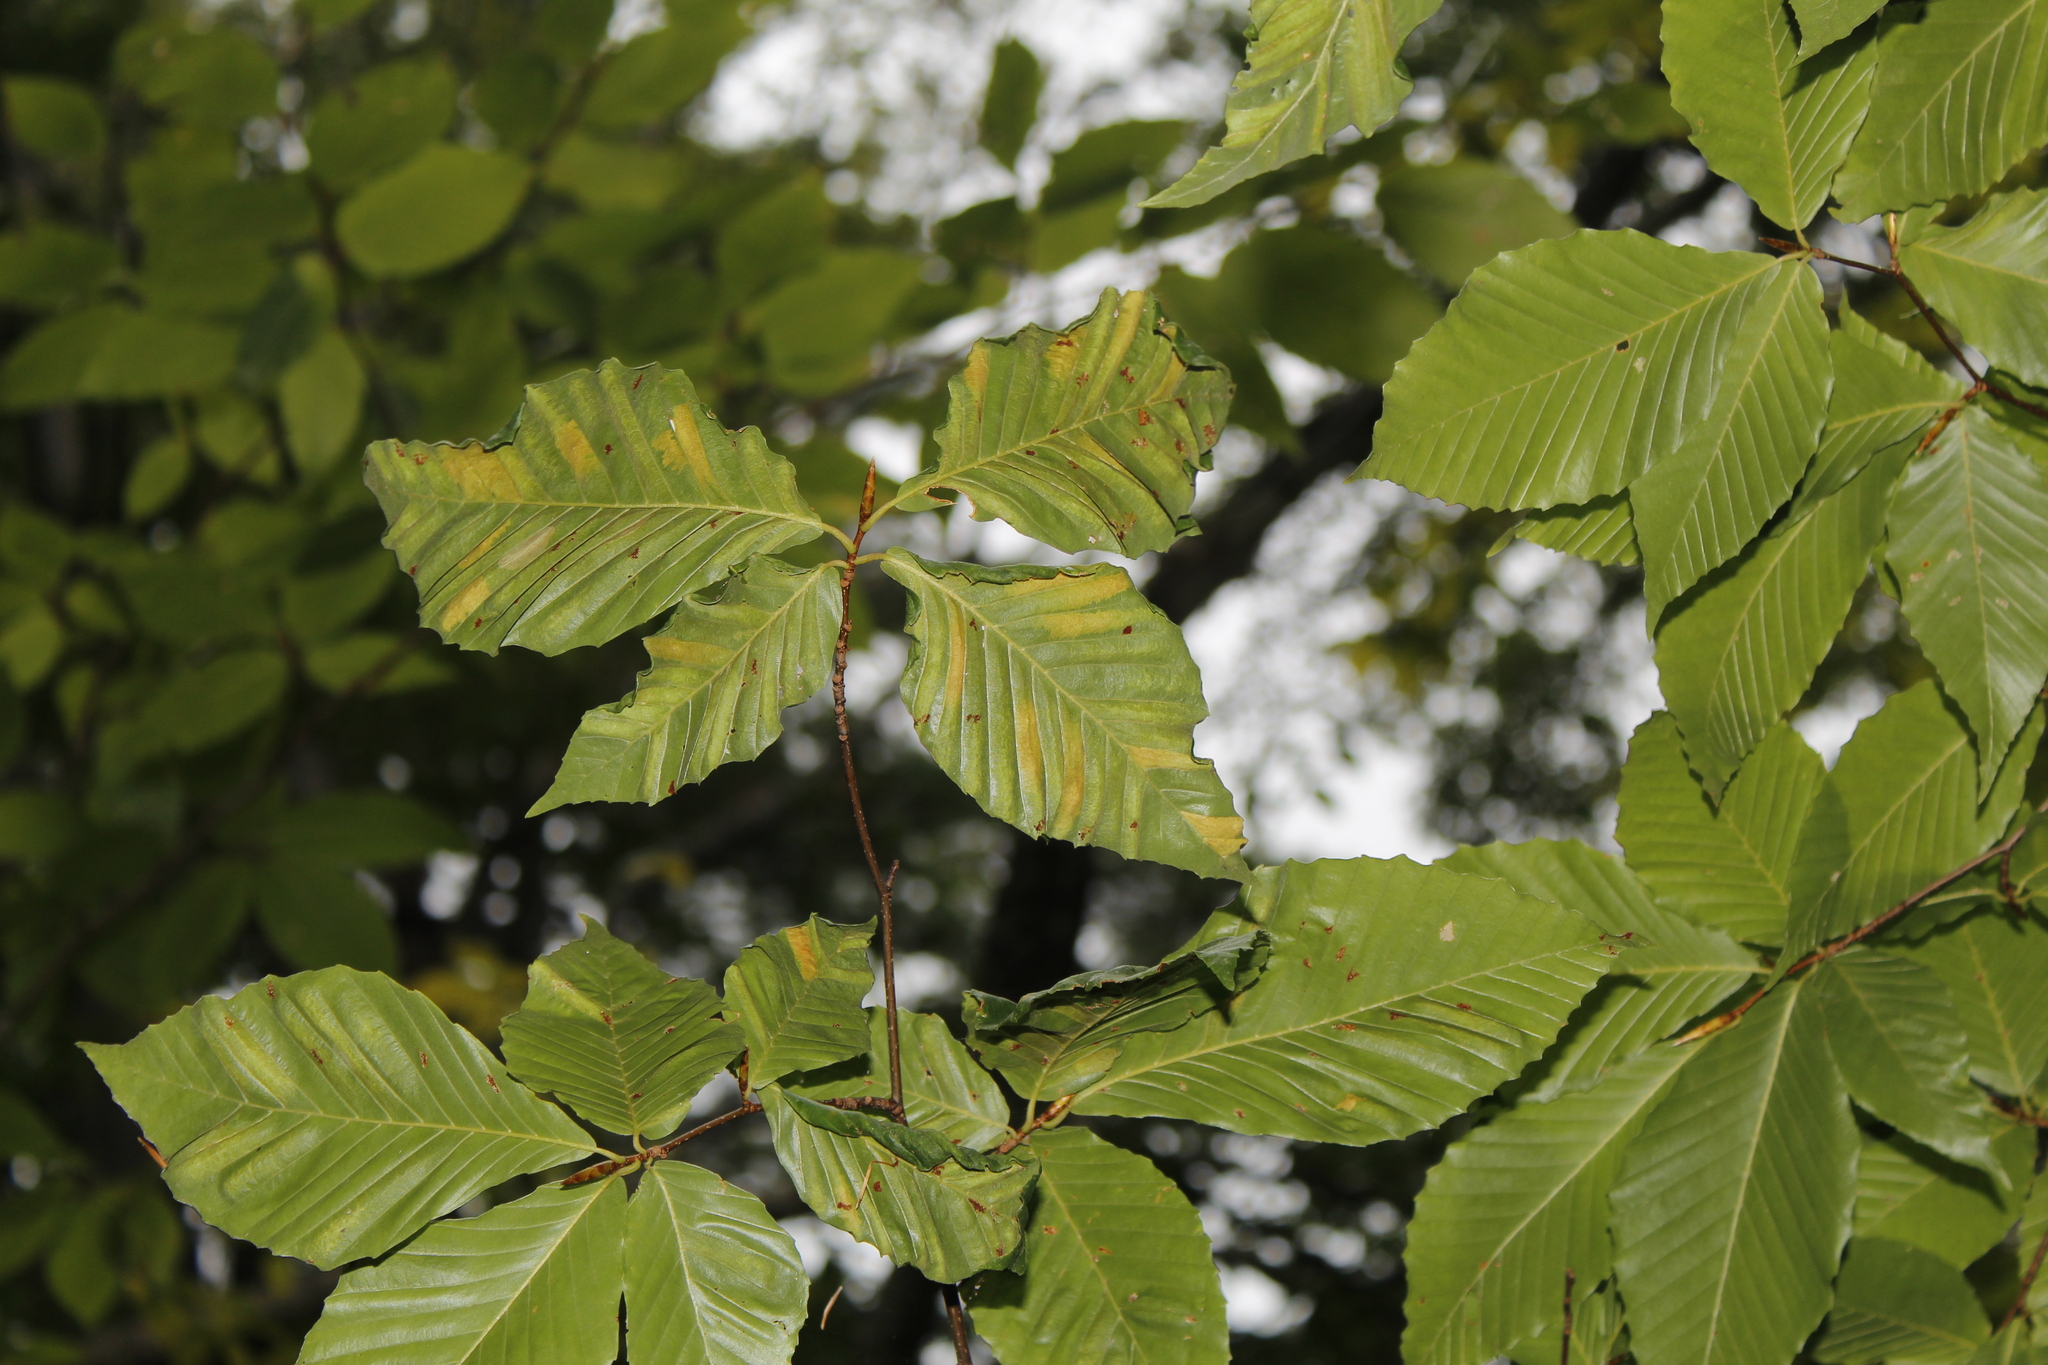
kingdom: Animalia
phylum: Nematoda
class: Chromadorea
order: Rhabditida
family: Anguinidae
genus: Litylenchus
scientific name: Litylenchus crenatae
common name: Beech leaf disease
